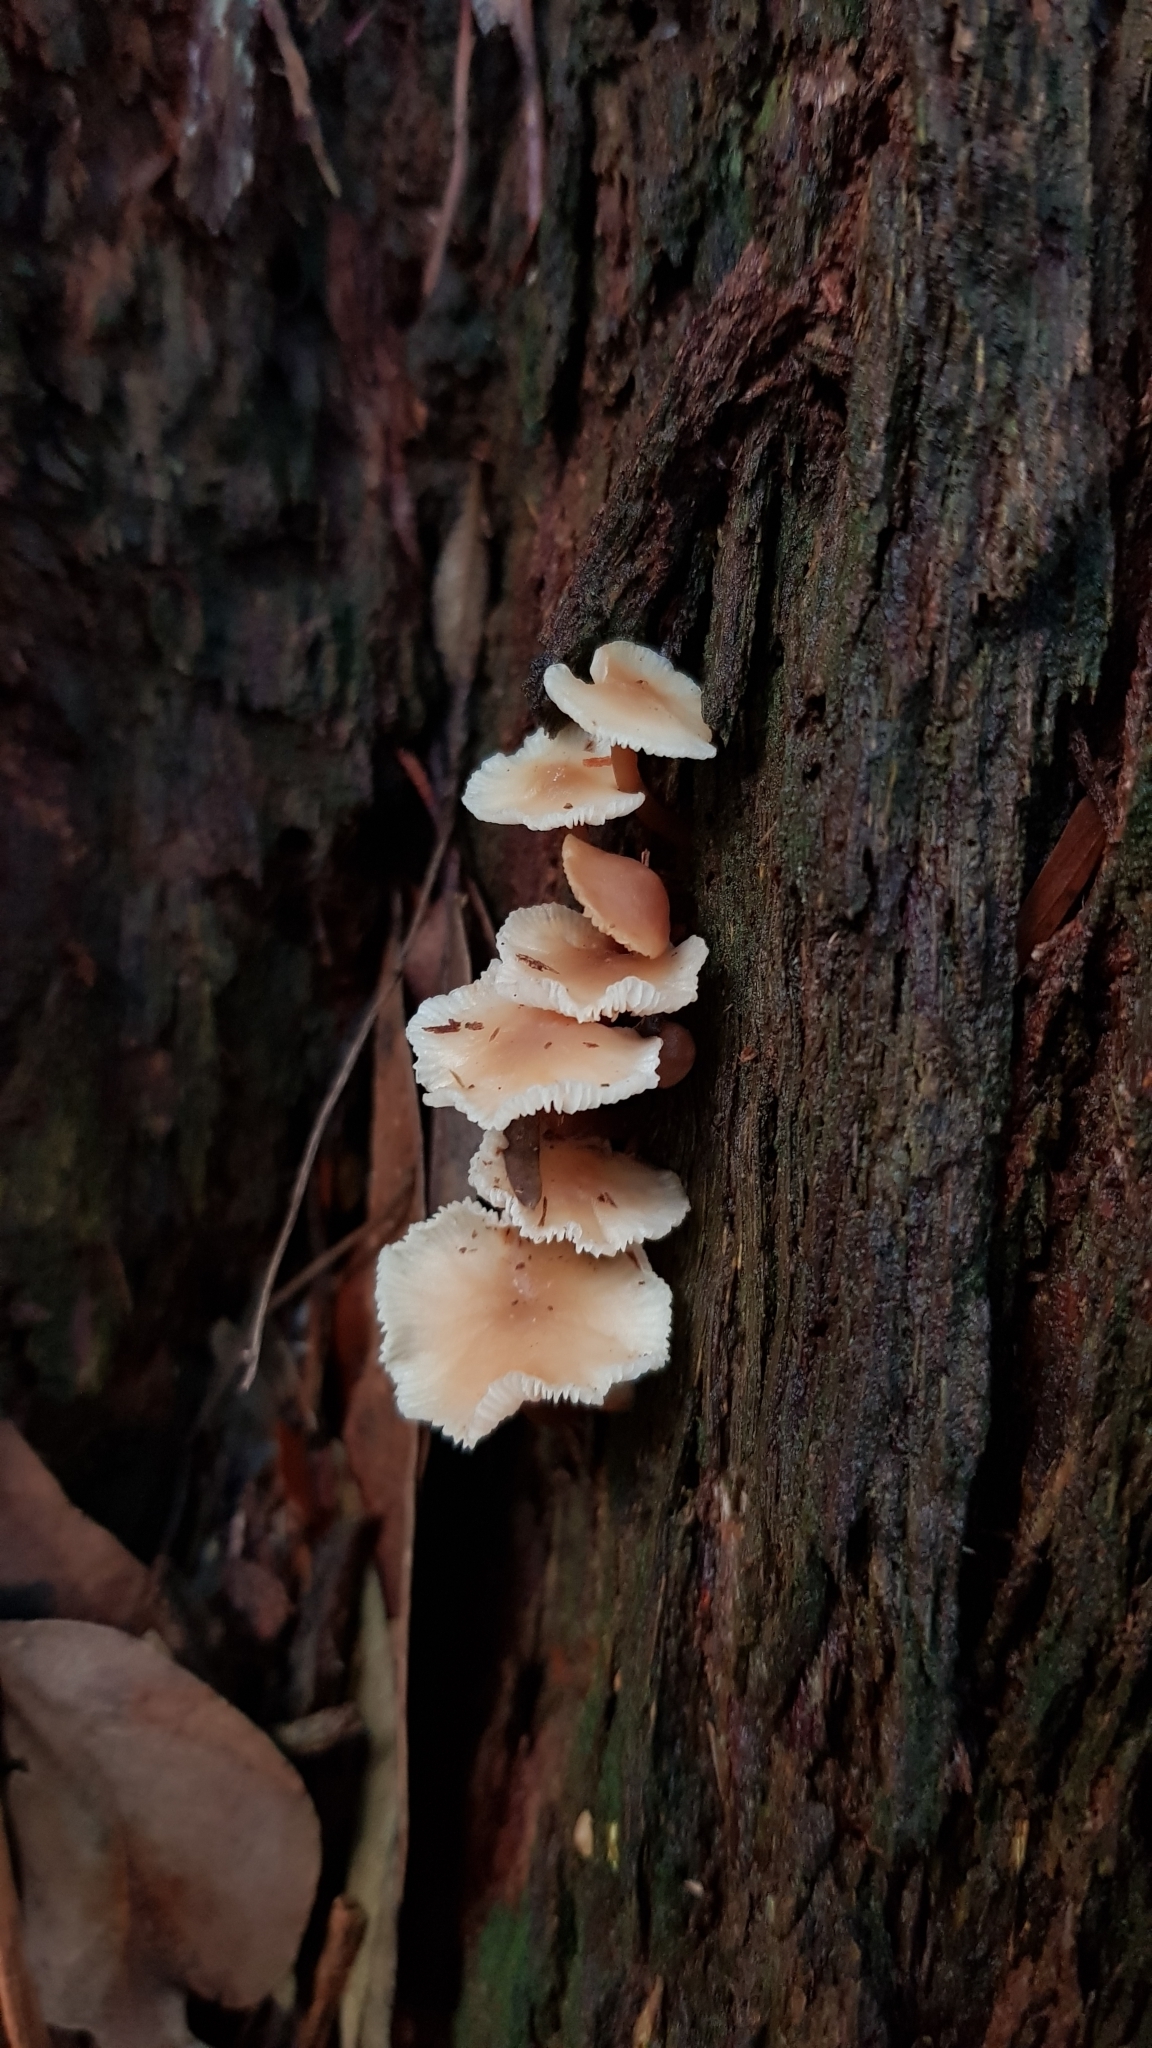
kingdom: Fungi
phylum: Basidiomycota
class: Agaricomycetes
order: Agaricales
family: Omphalotaceae
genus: Rhodocollybia
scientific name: Rhodocollybia
